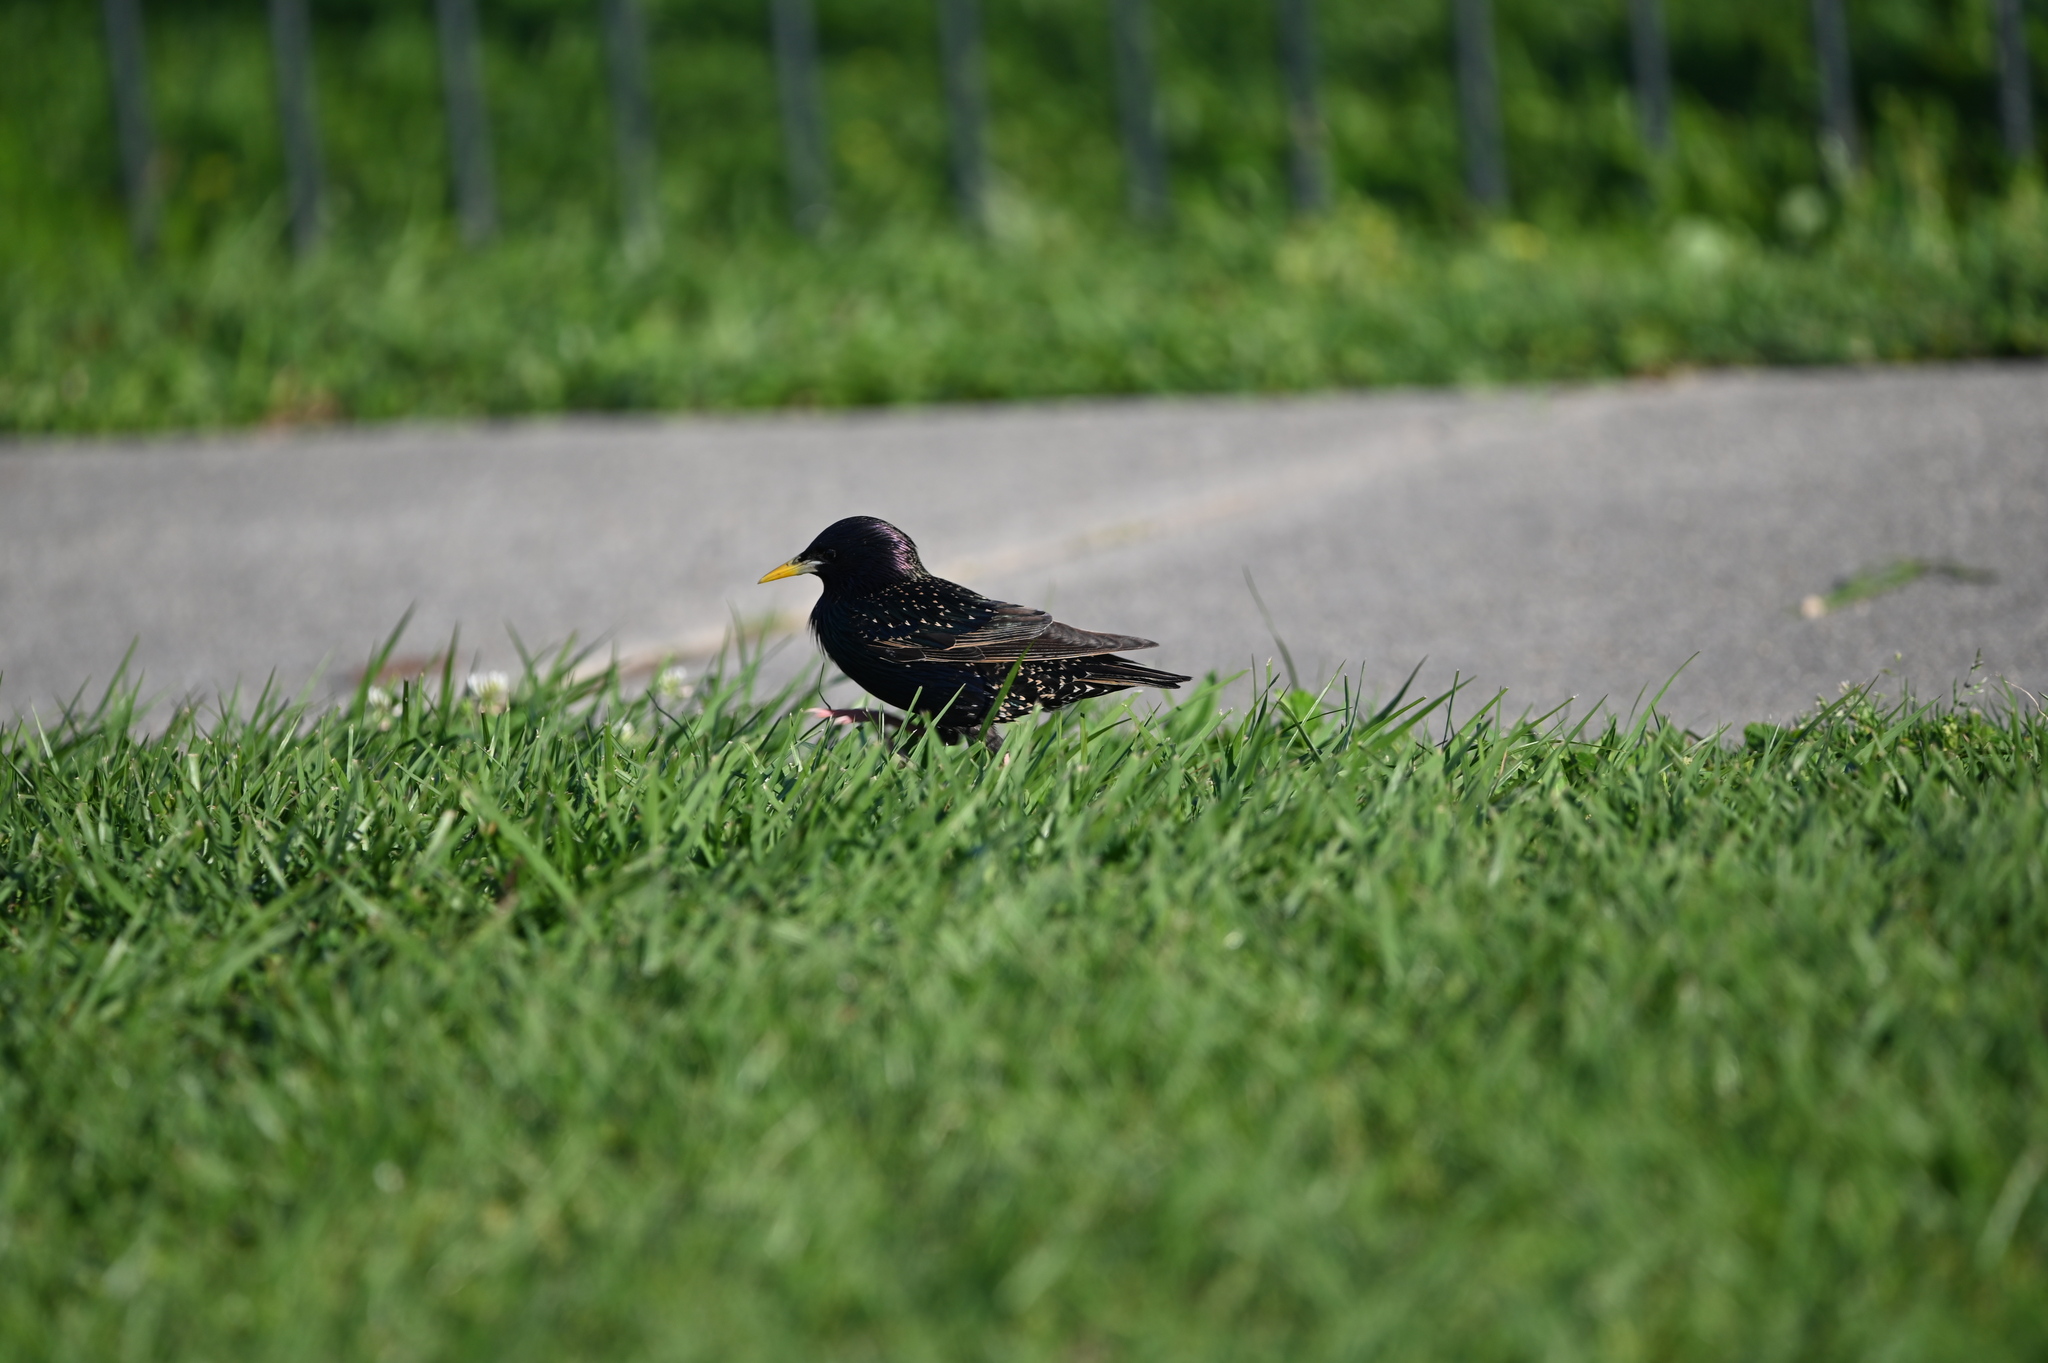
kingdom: Animalia
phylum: Chordata
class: Aves
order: Passeriformes
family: Sturnidae
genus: Sturnus
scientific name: Sturnus vulgaris
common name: Common starling
